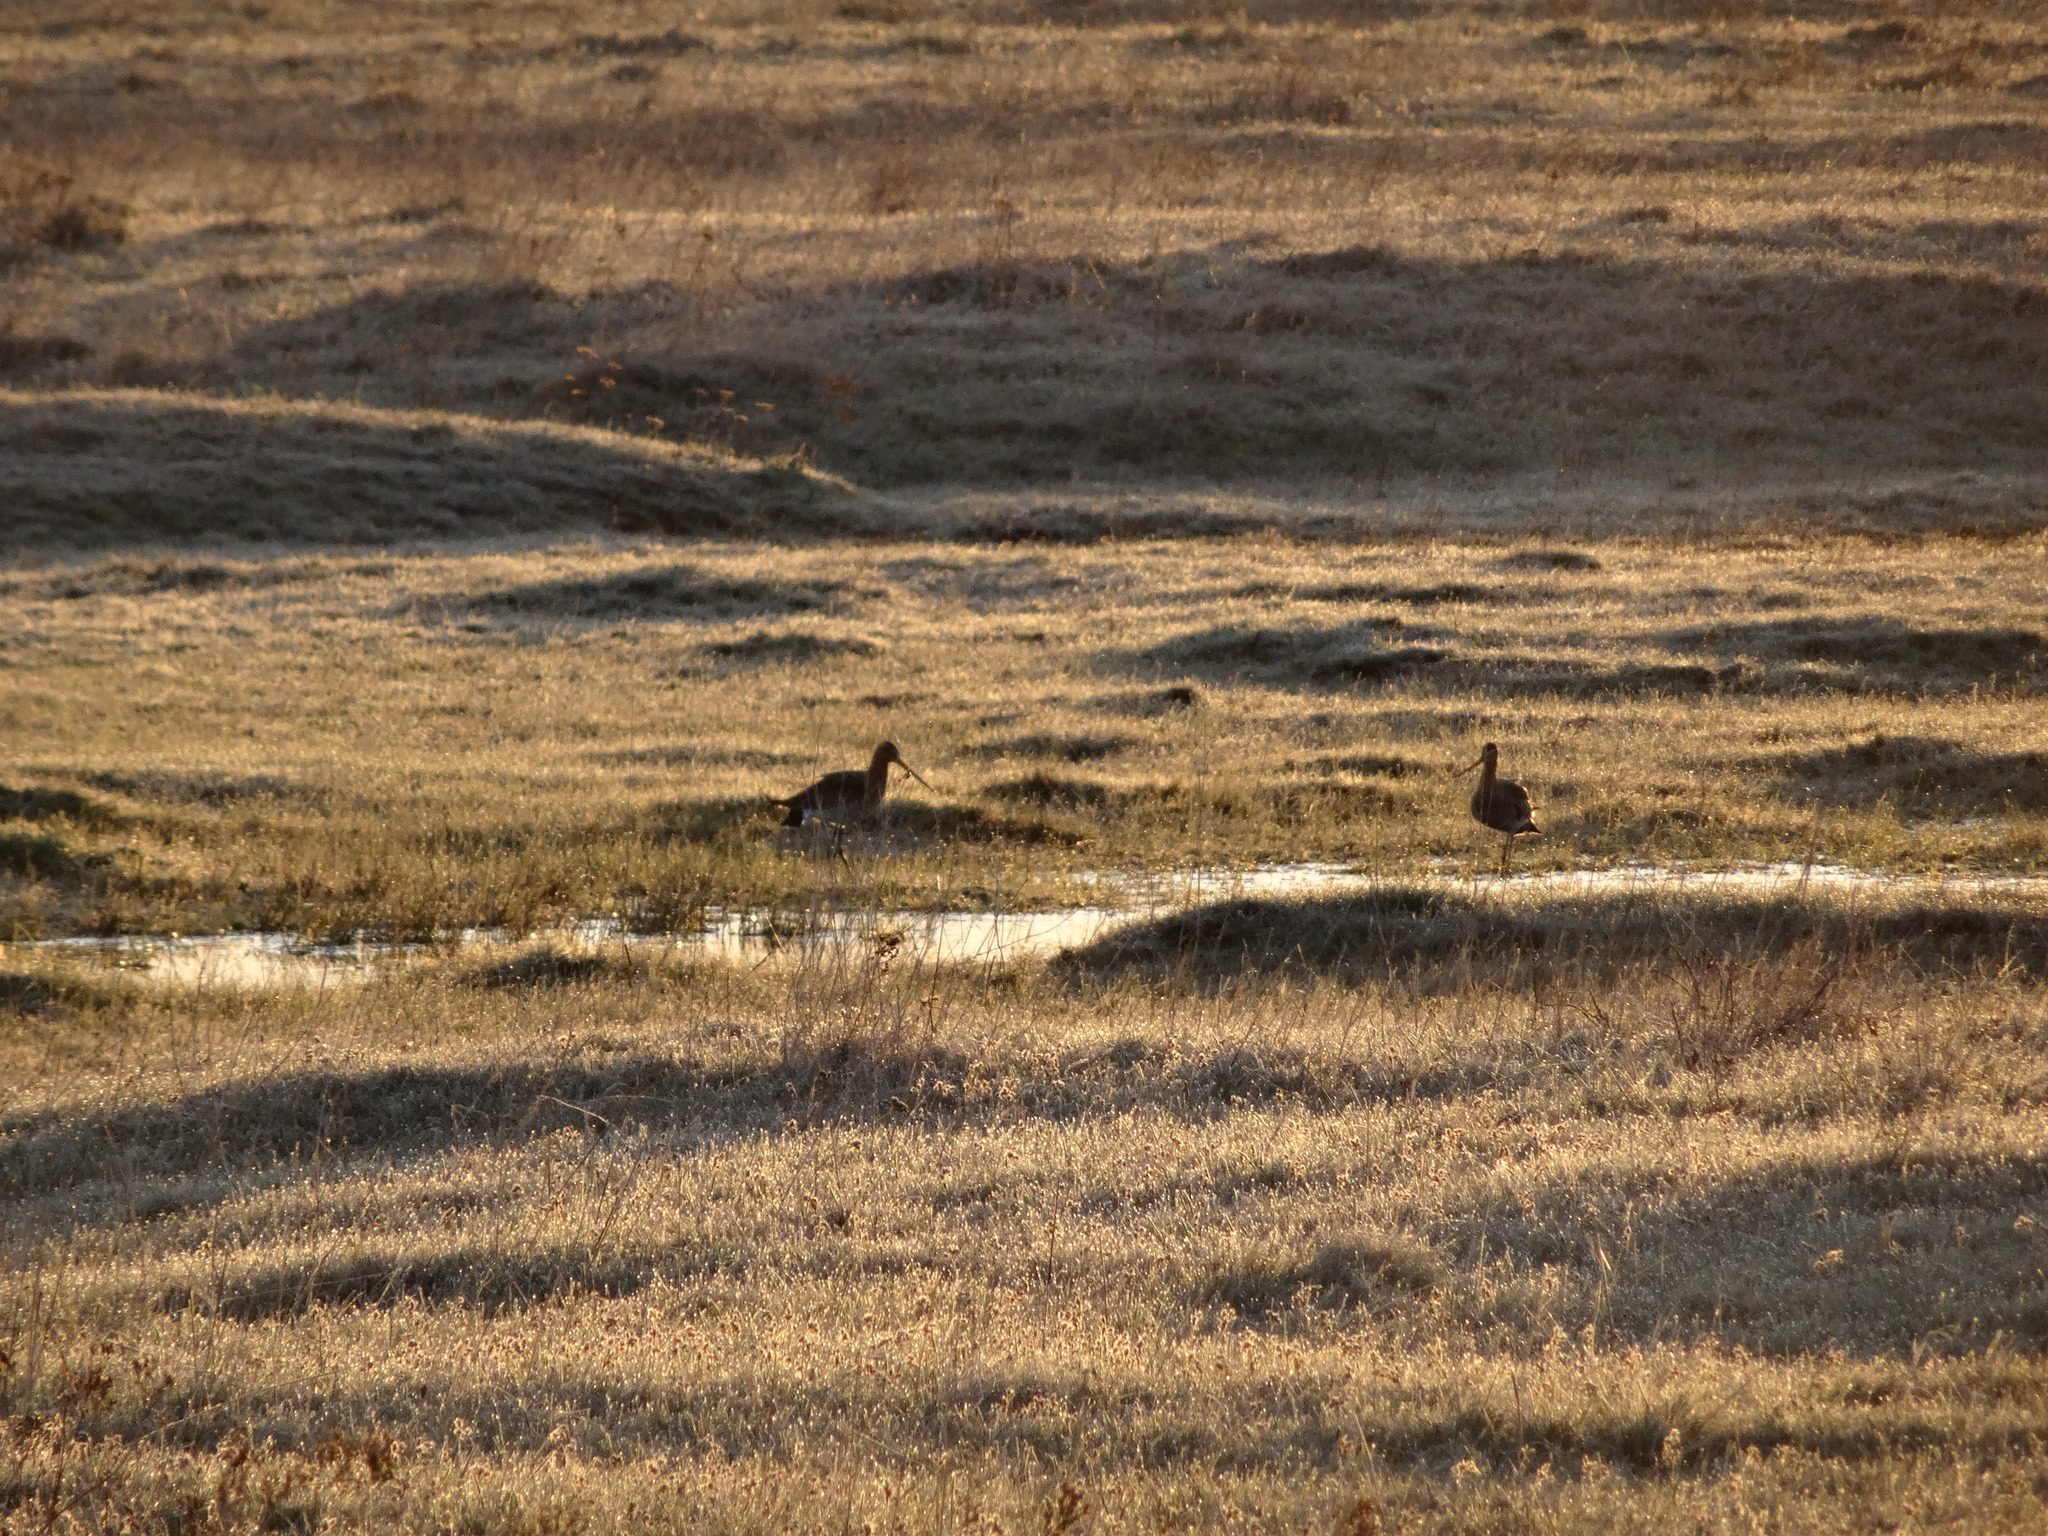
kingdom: Animalia
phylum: Chordata
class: Aves
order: Charadriiformes
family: Scolopacidae
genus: Limosa
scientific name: Limosa limosa
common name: Black-tailed godwit
